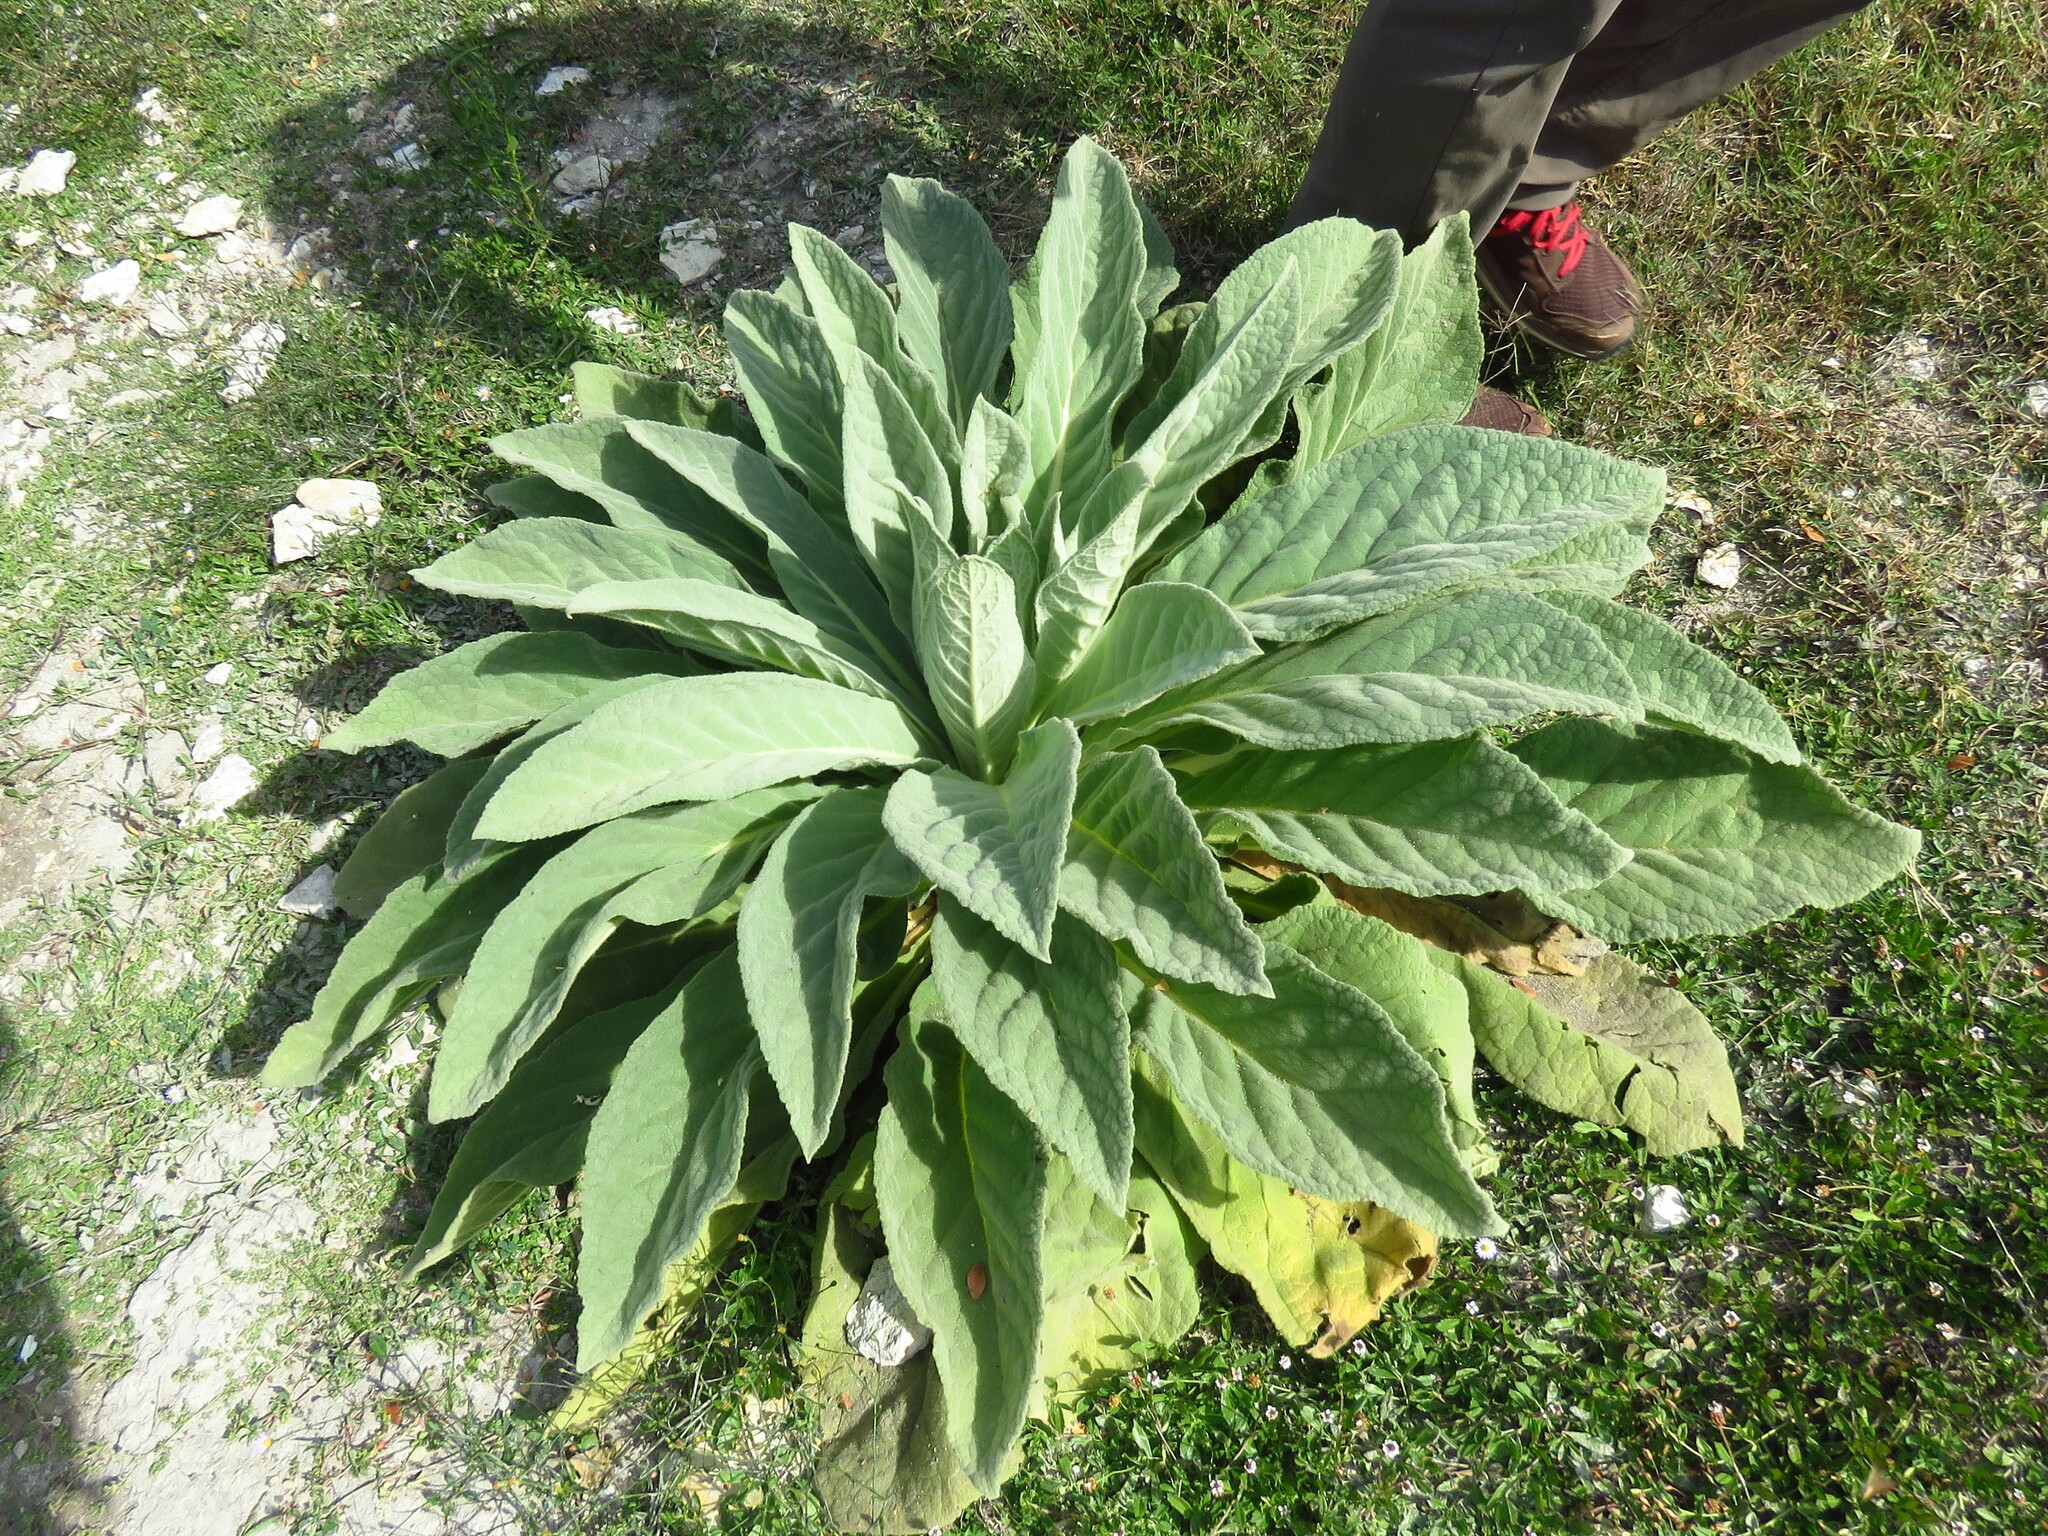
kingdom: Plantae
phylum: Tracheophyta
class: Magnoliopsida
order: Lamiales
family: Scrophulariaceae
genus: Verbascum
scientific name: Verbascum thapsus
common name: Common mullein
